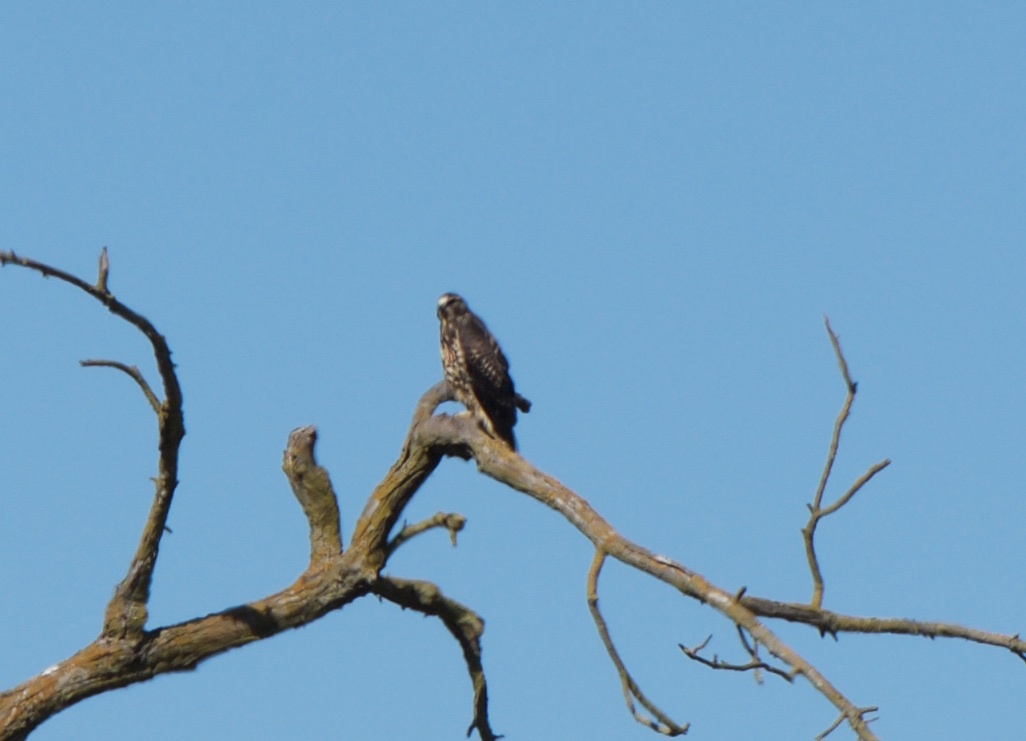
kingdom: Animalia
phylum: Chordata
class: Aves
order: Accipitriformes
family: Accipitridae
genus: Buteo
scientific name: Buteo swainsoni
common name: Swainson's hawk
